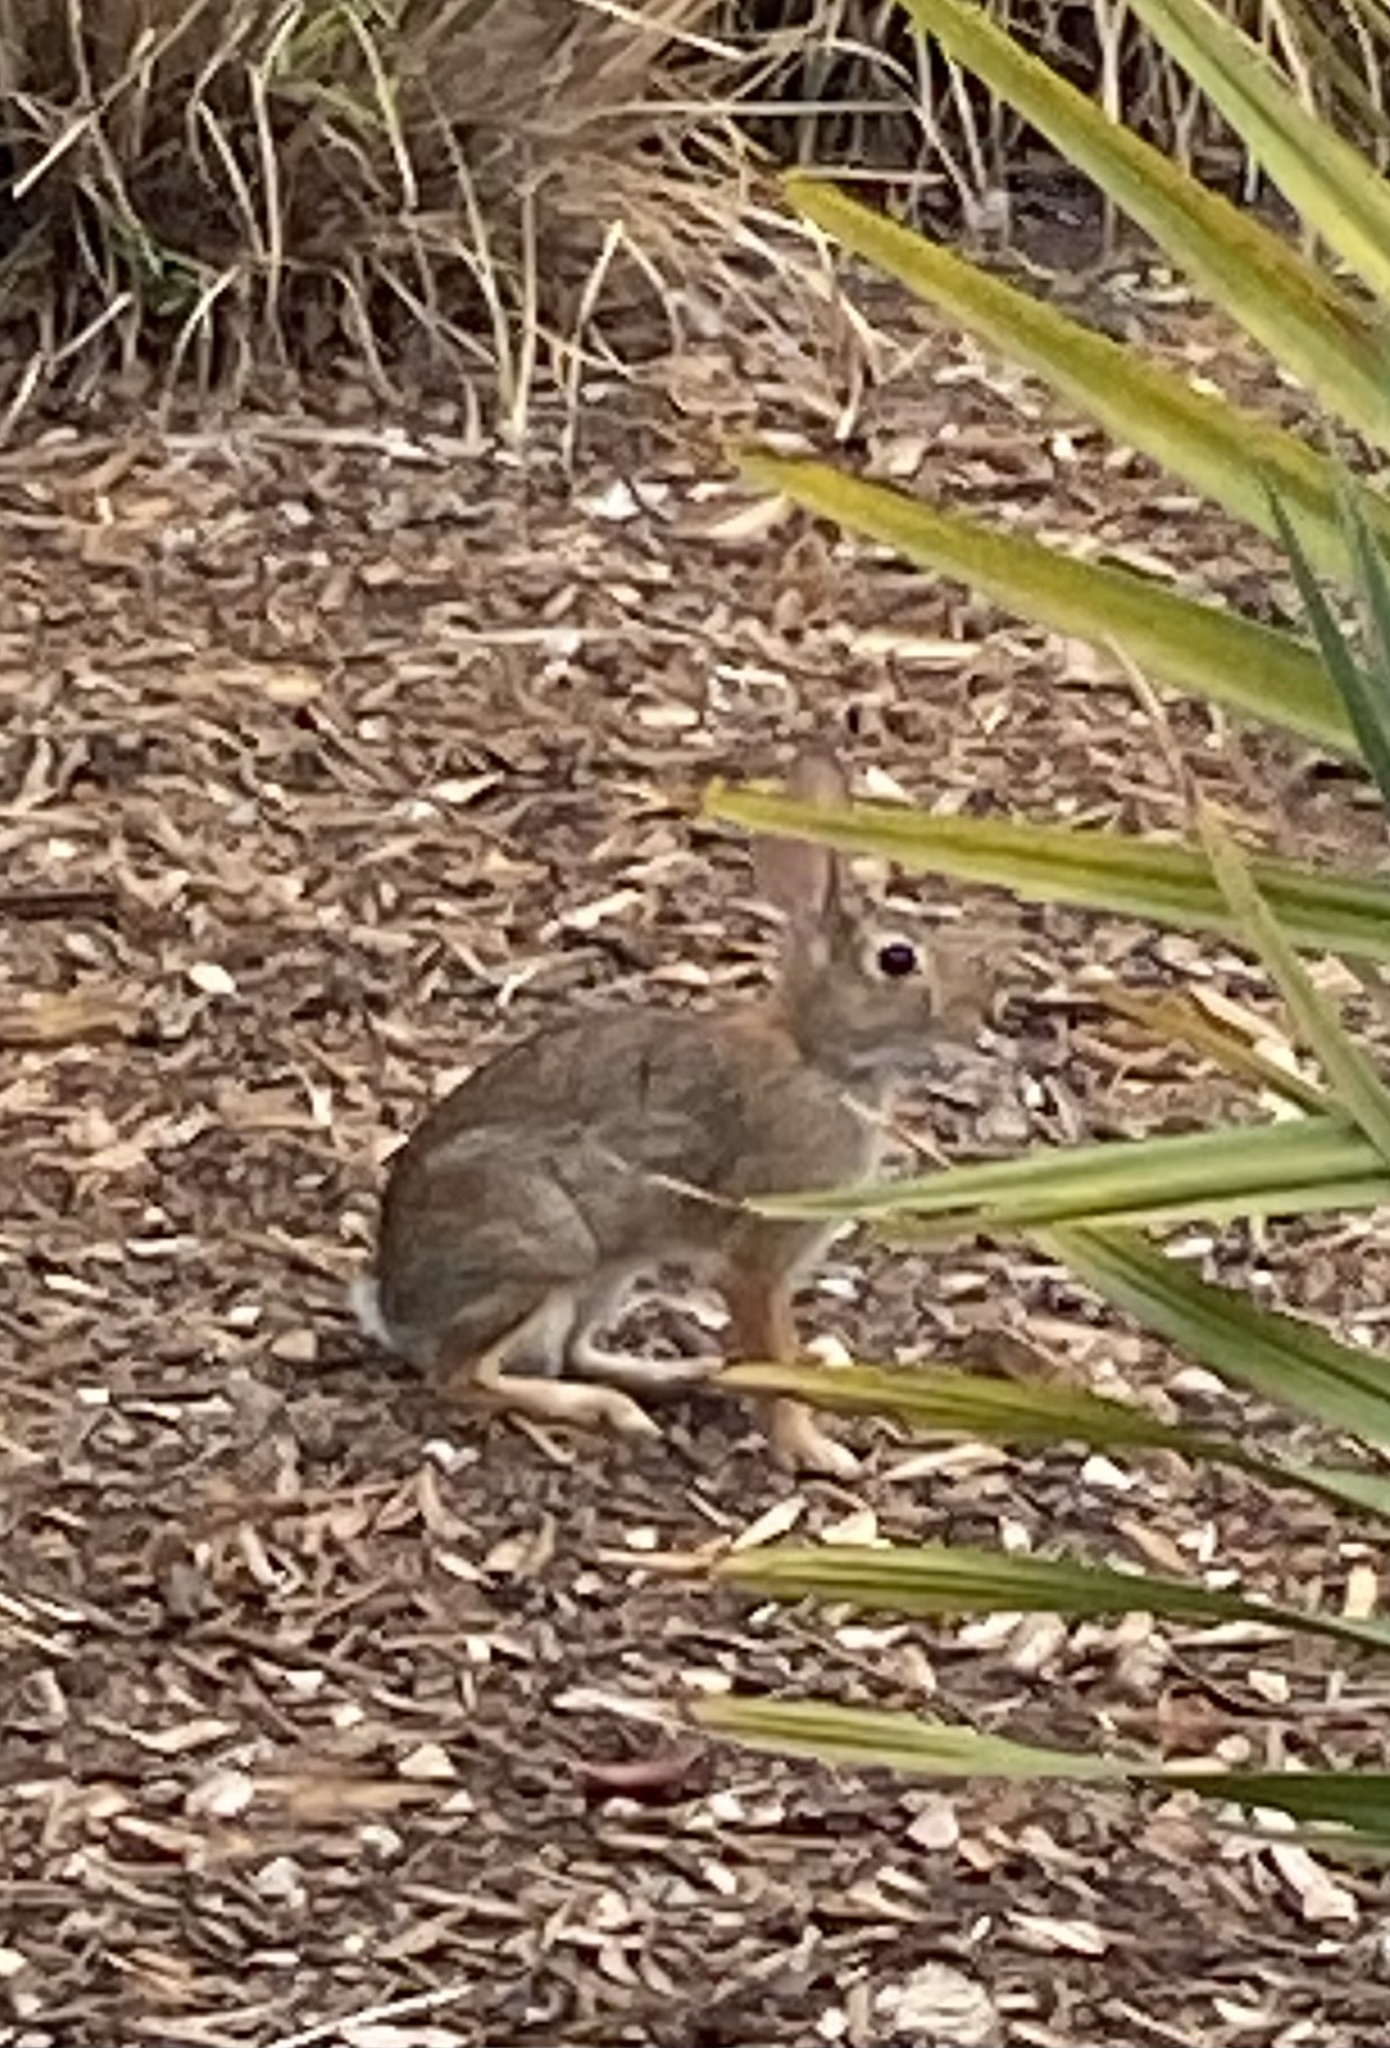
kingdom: Animalia
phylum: Chordata
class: Mammalia
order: Lagomorpha
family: Leporidae
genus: Sylvilagus
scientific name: Sylvilagus floridanus
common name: Eastern cottontail
